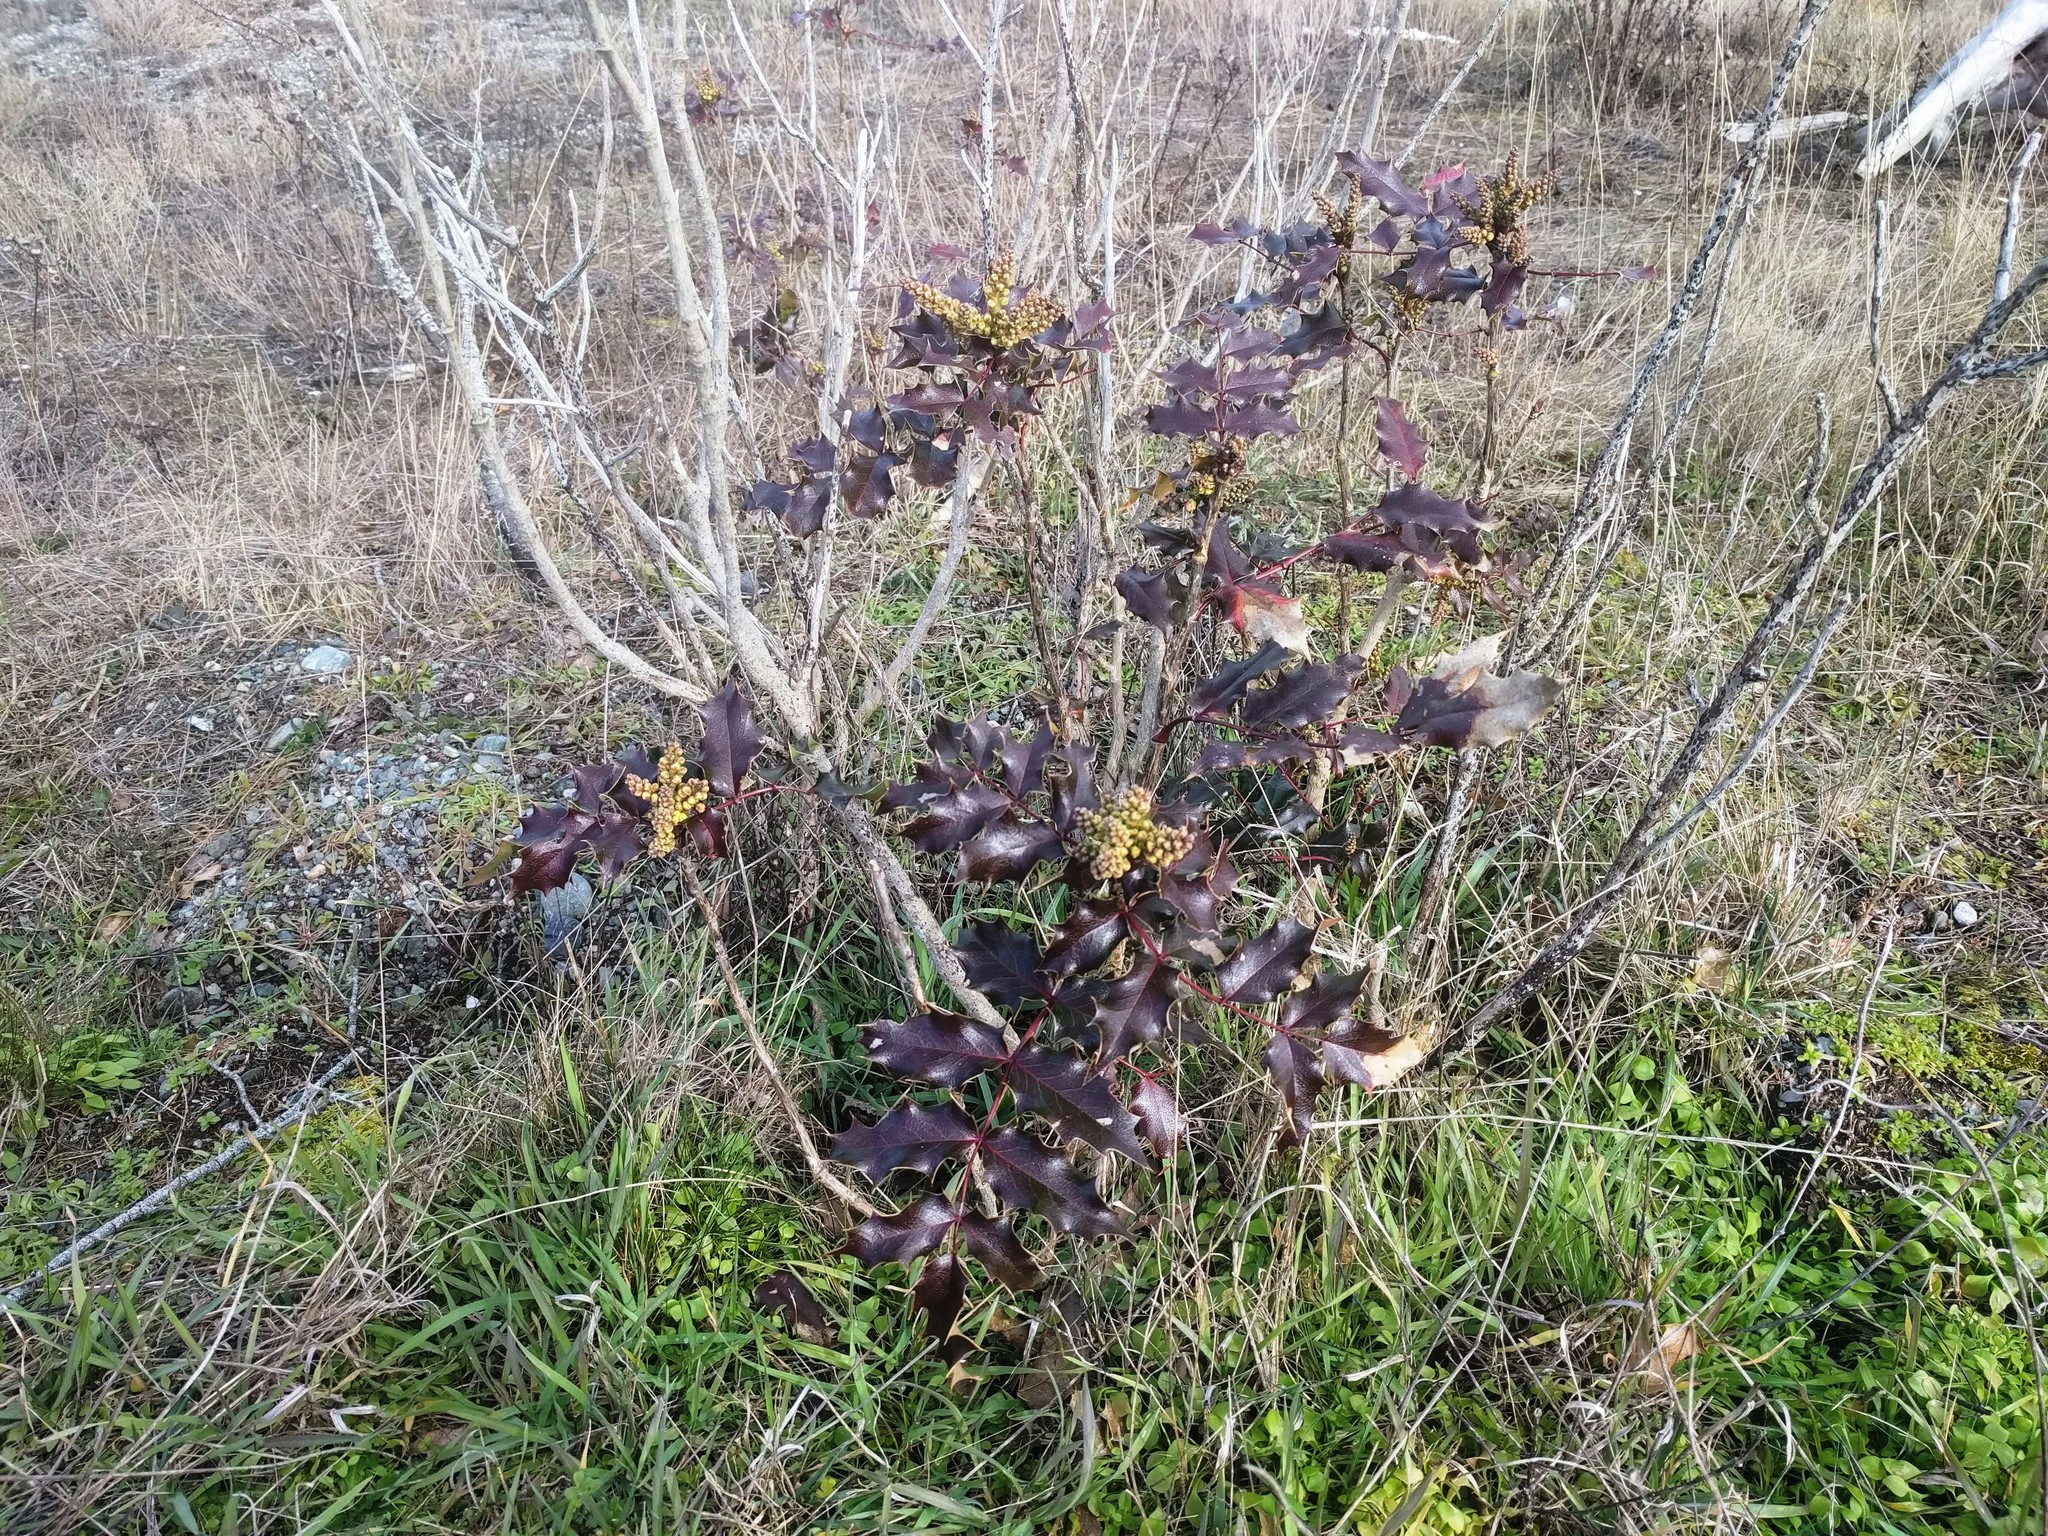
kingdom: Plantae
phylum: Tracheophyta
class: Magnoliopsida
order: Ranunculales
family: Berberidaceae
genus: Mahonia
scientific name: Mahonia aquifolium
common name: Oregon-grape
